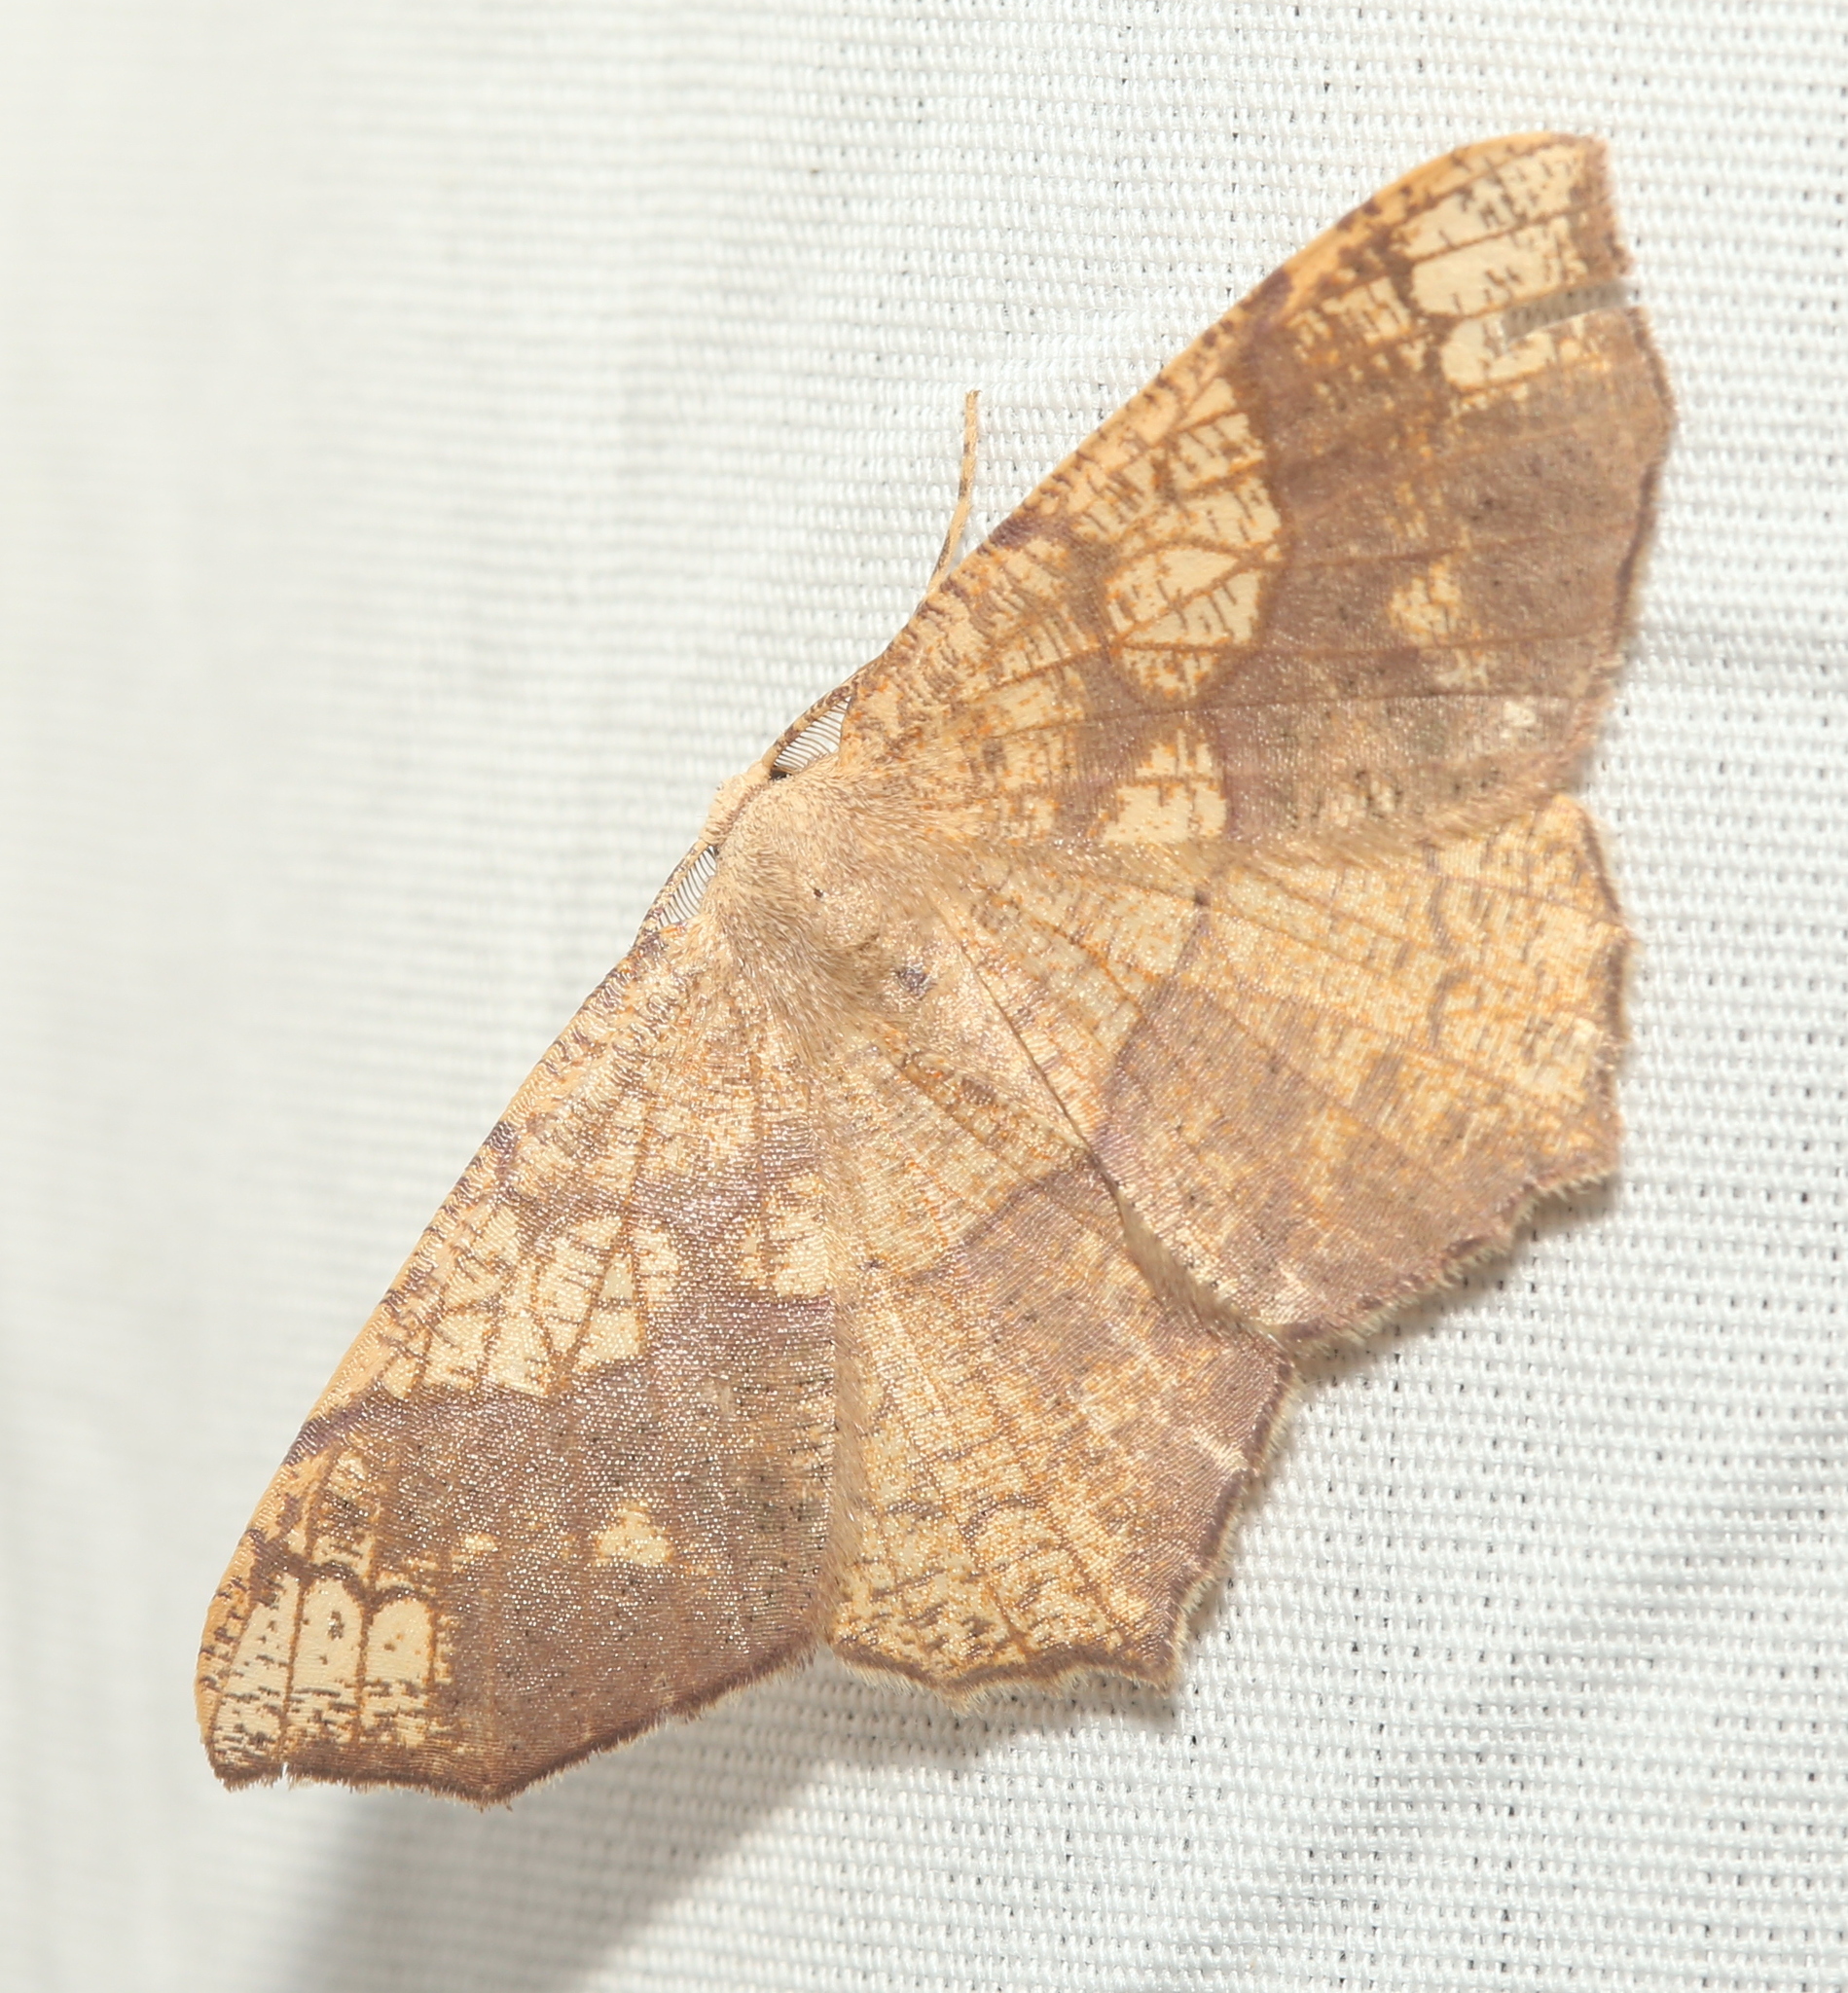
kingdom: Animalia
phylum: Arthropoda
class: Insecta
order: Lepidoptera
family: Geometridae
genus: Besma
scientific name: Besma quercivoraria
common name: Oak besma
